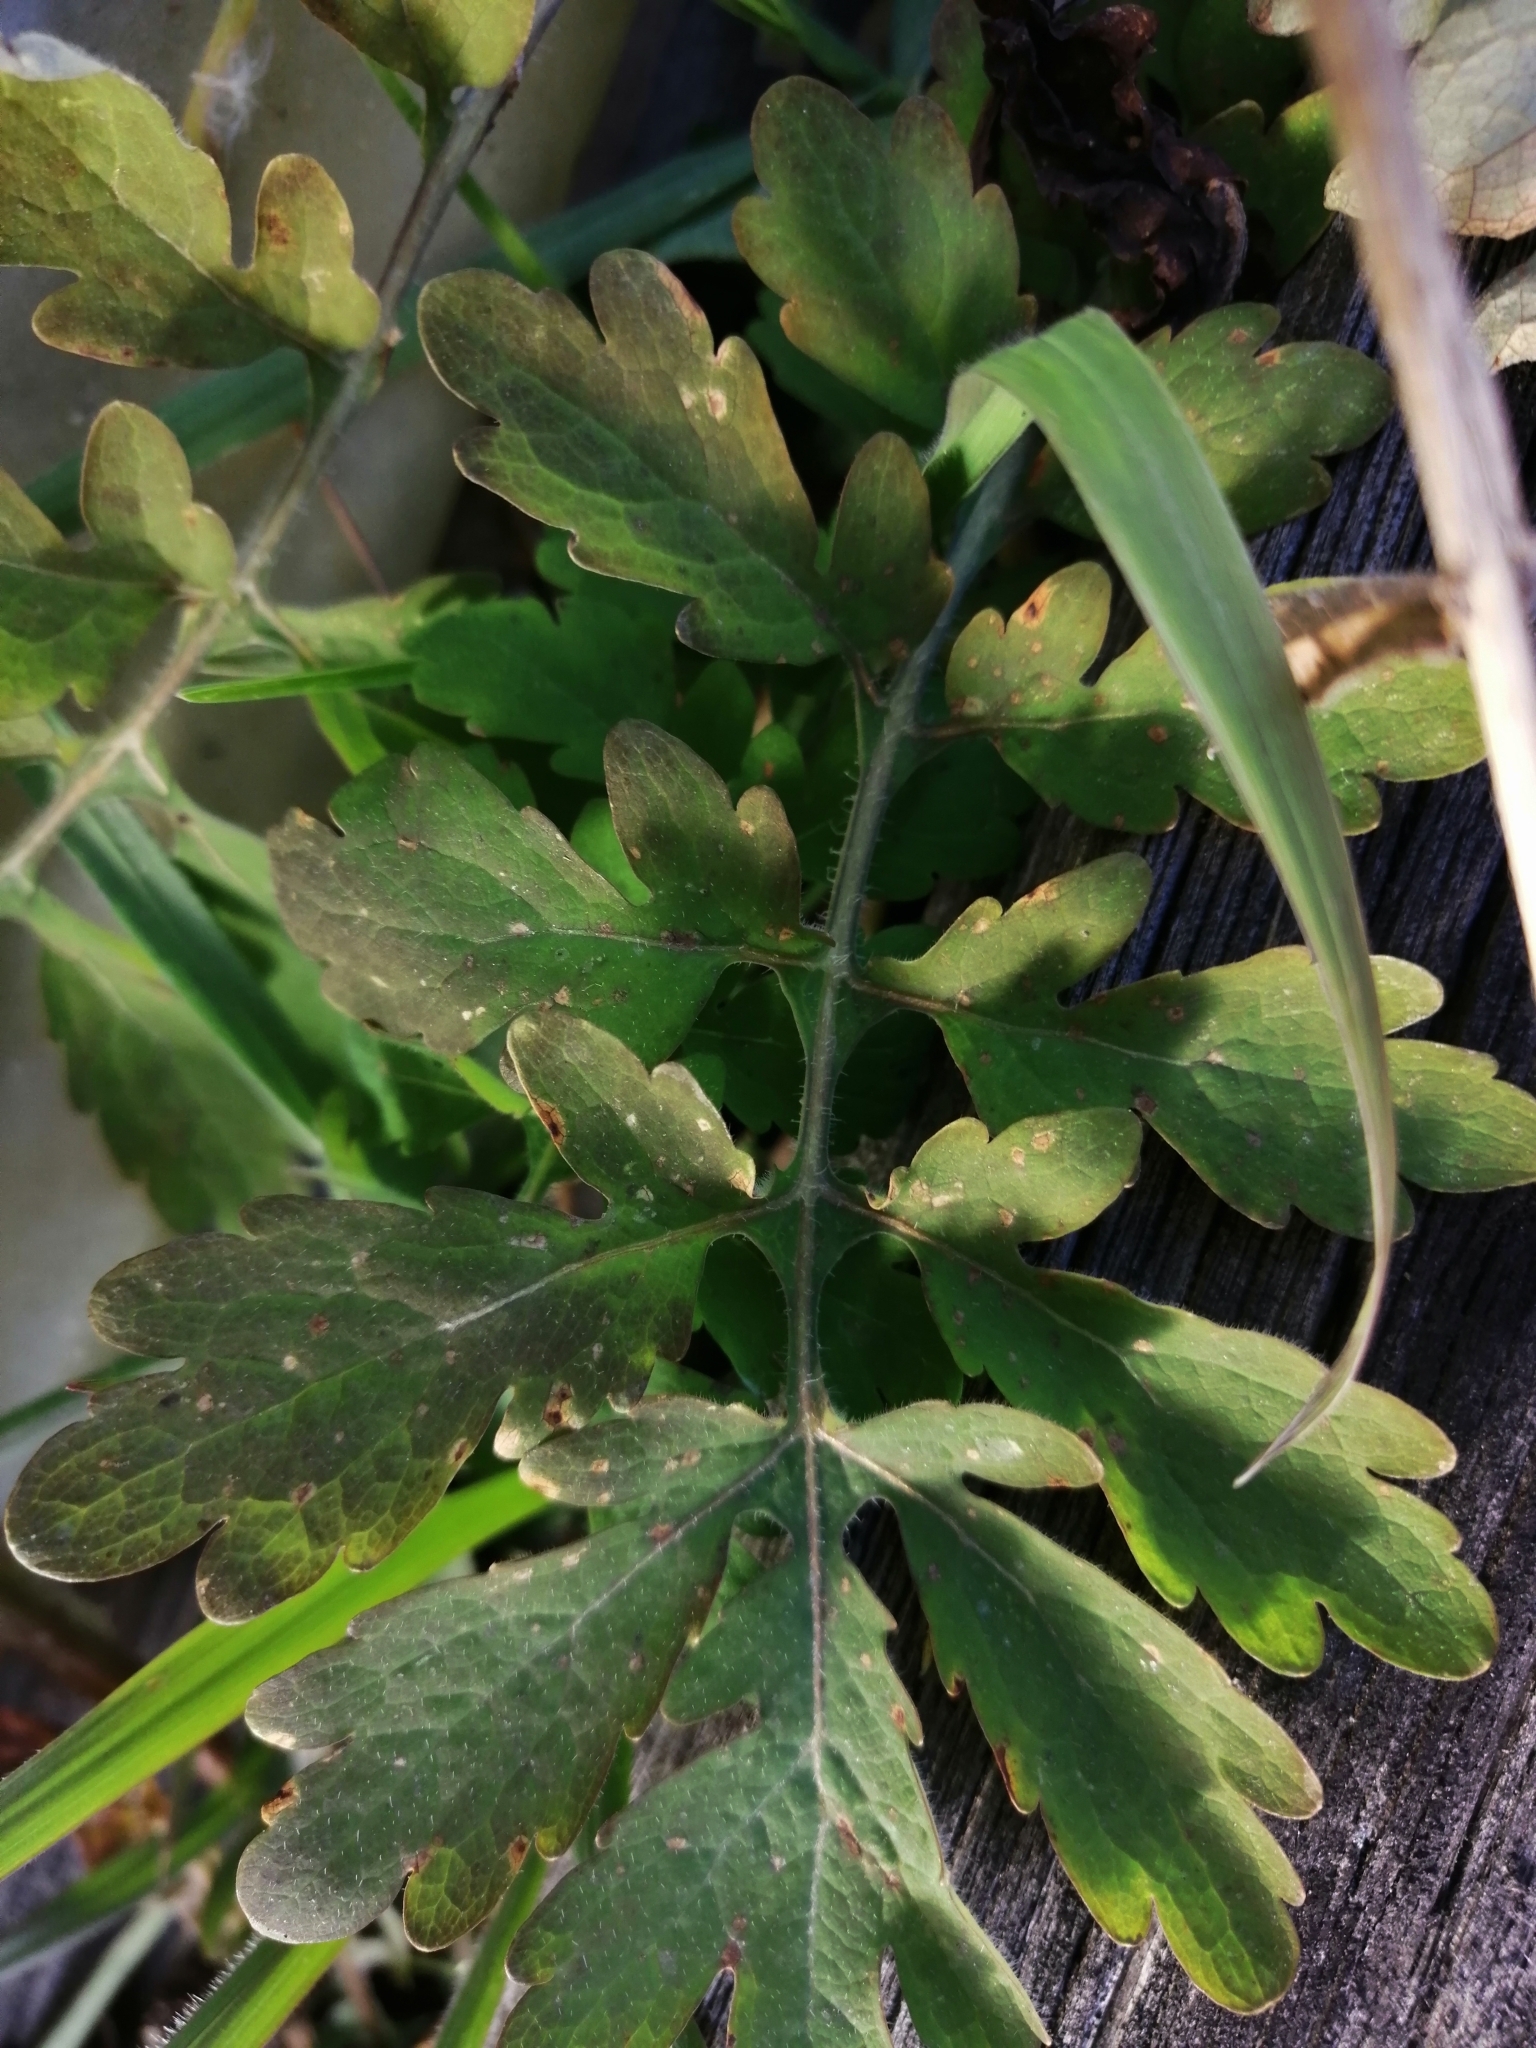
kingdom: Plantae
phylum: Tracheophyta
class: Magnoliopsida
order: Ranunculales
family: Papaveraceae
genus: Chelidonium
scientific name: Chelidonium majus
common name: Greater celandine
